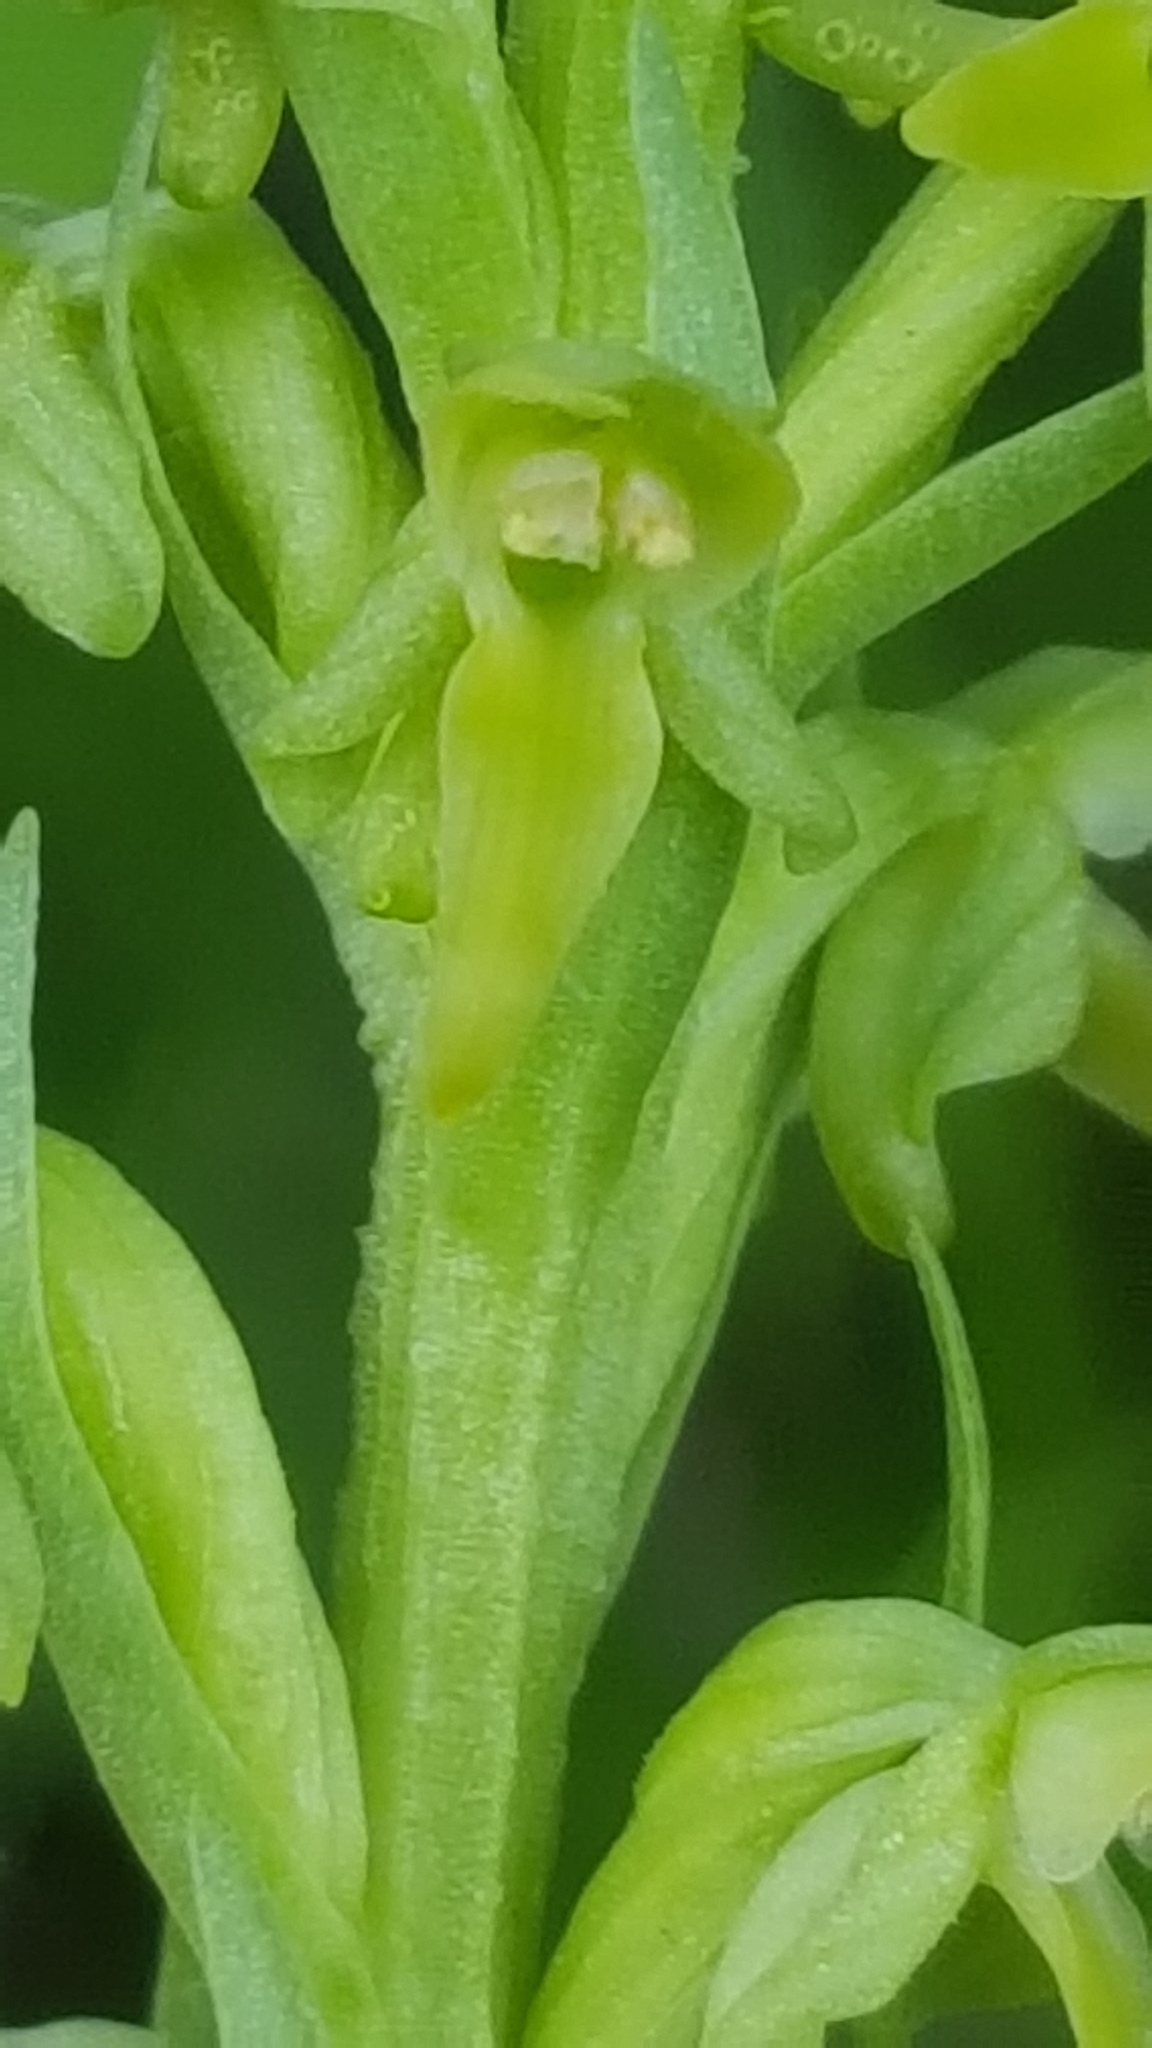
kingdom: Plantae
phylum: Tracheophyta
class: Liliopsida
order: Asparagales
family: Orchidaceae
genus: Platanthera
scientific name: Platanthera aquilonis
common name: Northern green orchid
